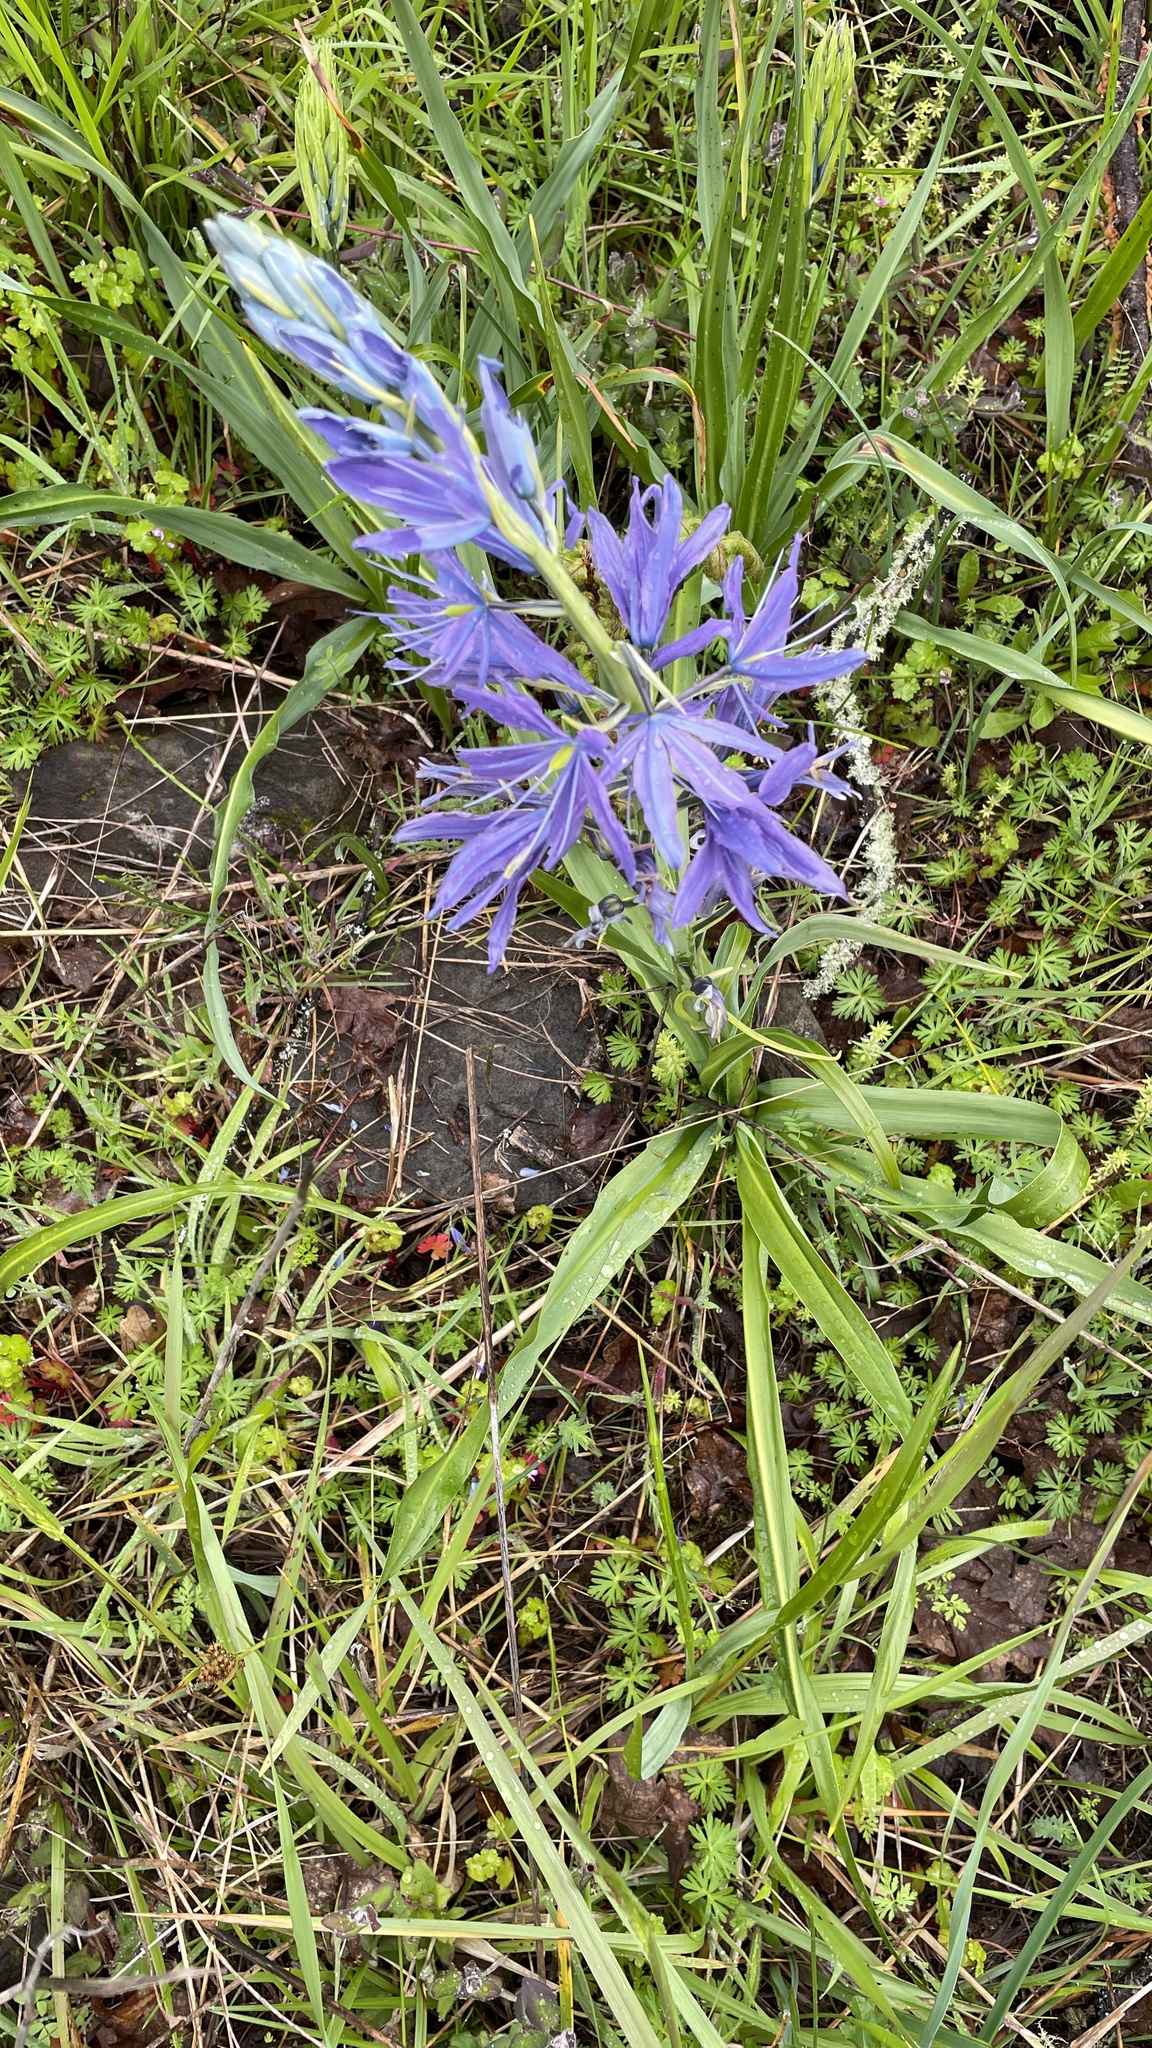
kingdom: Plantae
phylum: Tracheophyta
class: Liliopsida
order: Asparagales
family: Asparagaceae
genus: Camassia
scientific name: Camassia leichtlinii
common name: Leichtlin's camas
